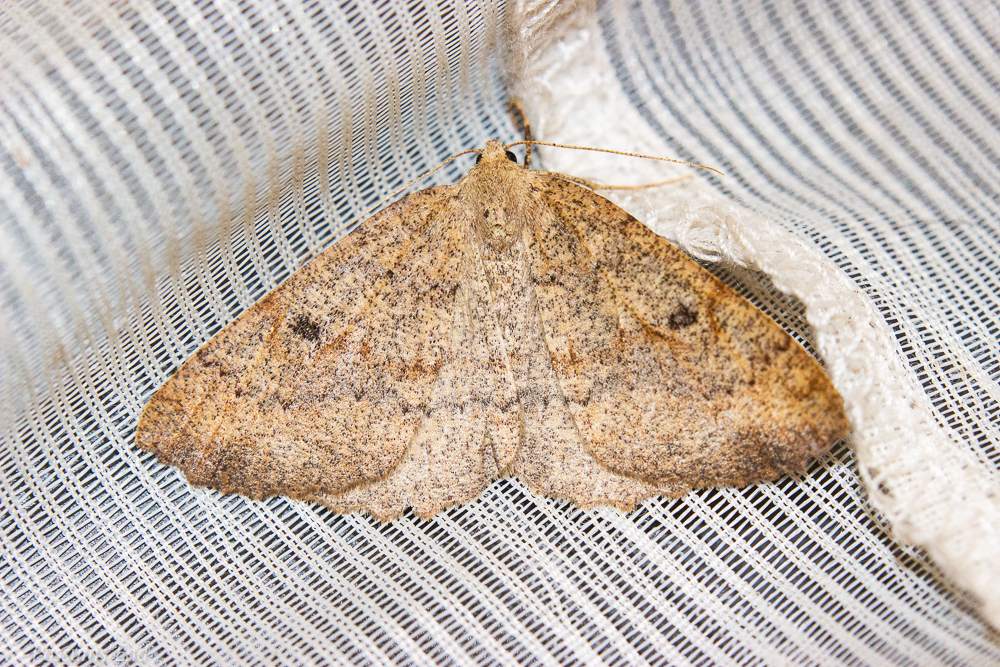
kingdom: Animalia
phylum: Arthropoda
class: Insecta
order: Lepidoptera
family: Geometridae
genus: Cleora
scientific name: Cleora scriptaria
